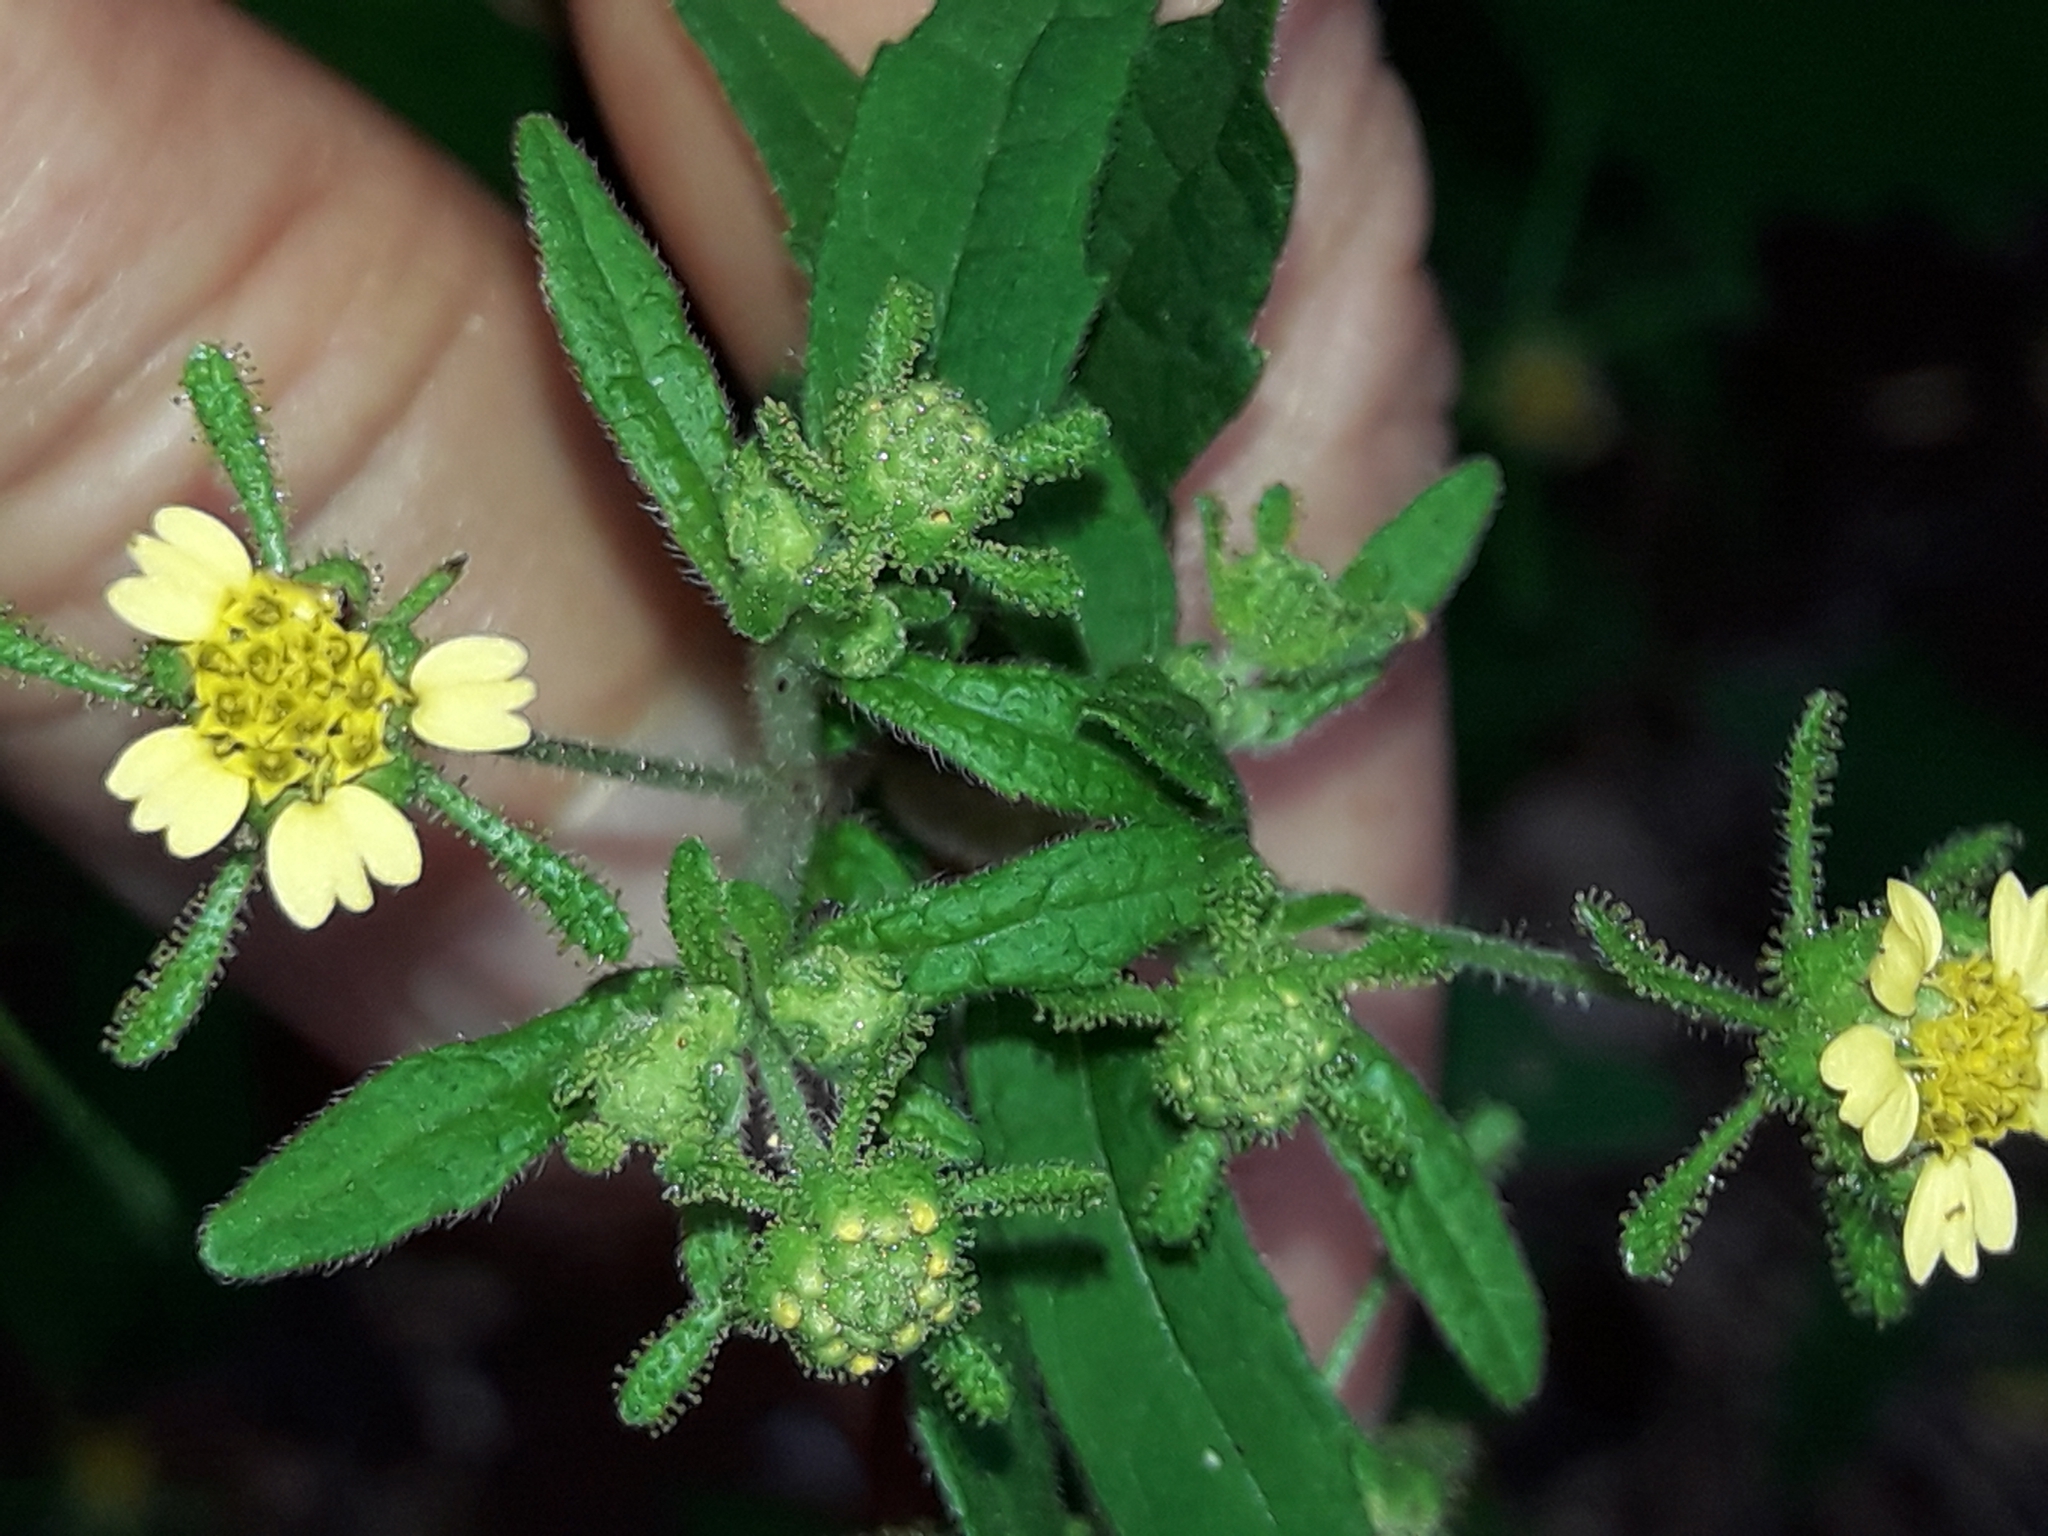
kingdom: Plantae
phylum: Tracheophyta
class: Magnoliopsida
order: Asterales
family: Asteraceae
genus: Sigesbeckia
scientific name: Sigesbeckia orientalis
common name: Eastern st paul's-wort
